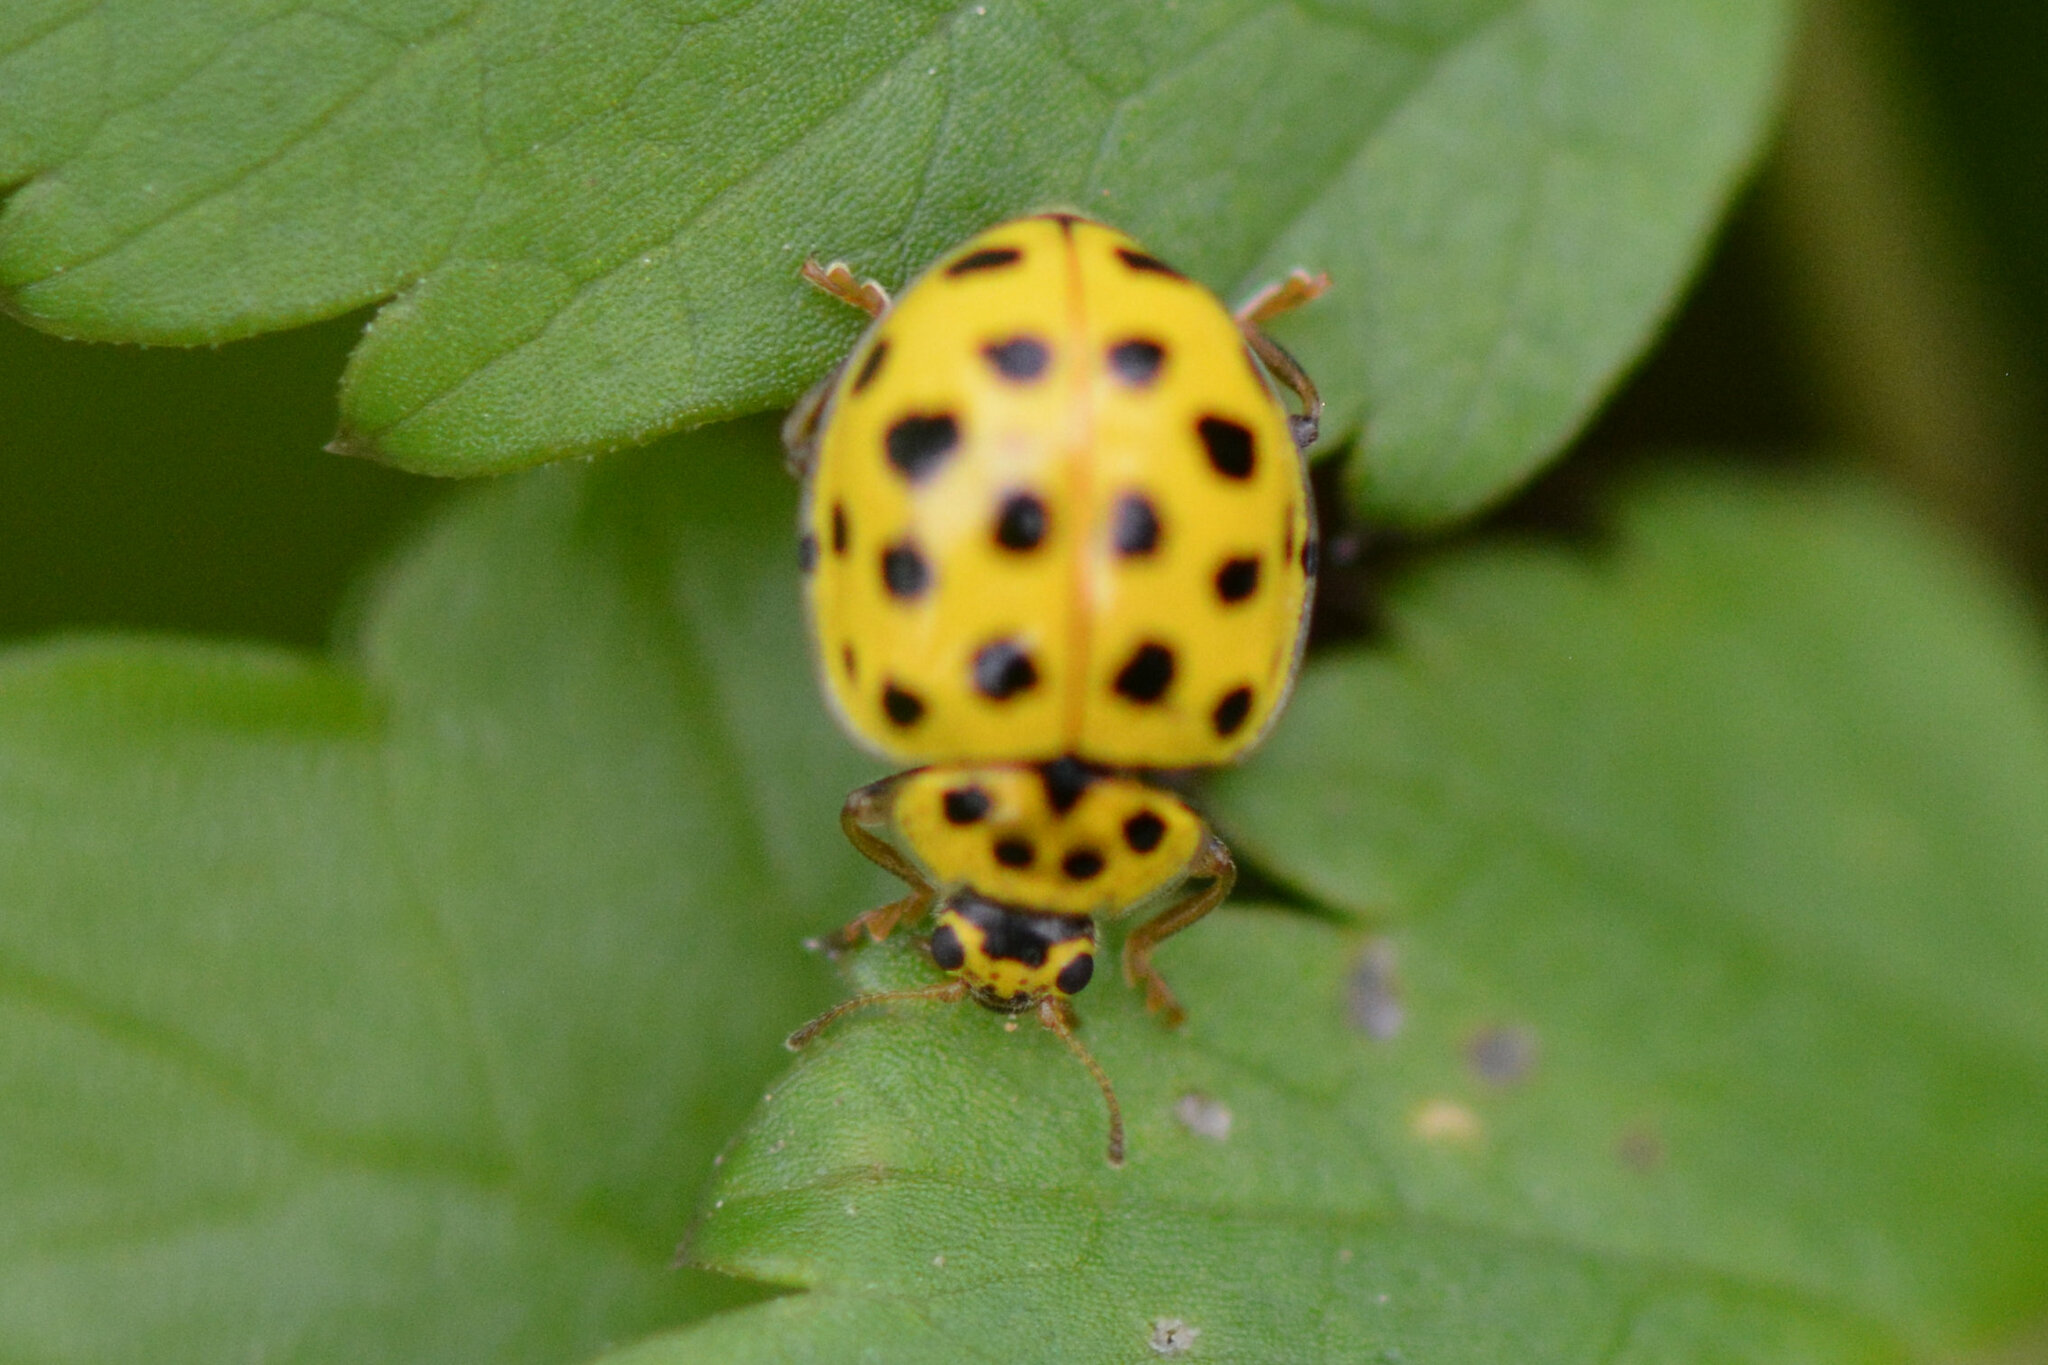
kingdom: Animalia
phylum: Arthropoda
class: Insecta
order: Coleoptera
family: Coccinellidae
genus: Psyllobora
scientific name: Psyllobora vigintiduopunctata
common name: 22-spot ladybird
